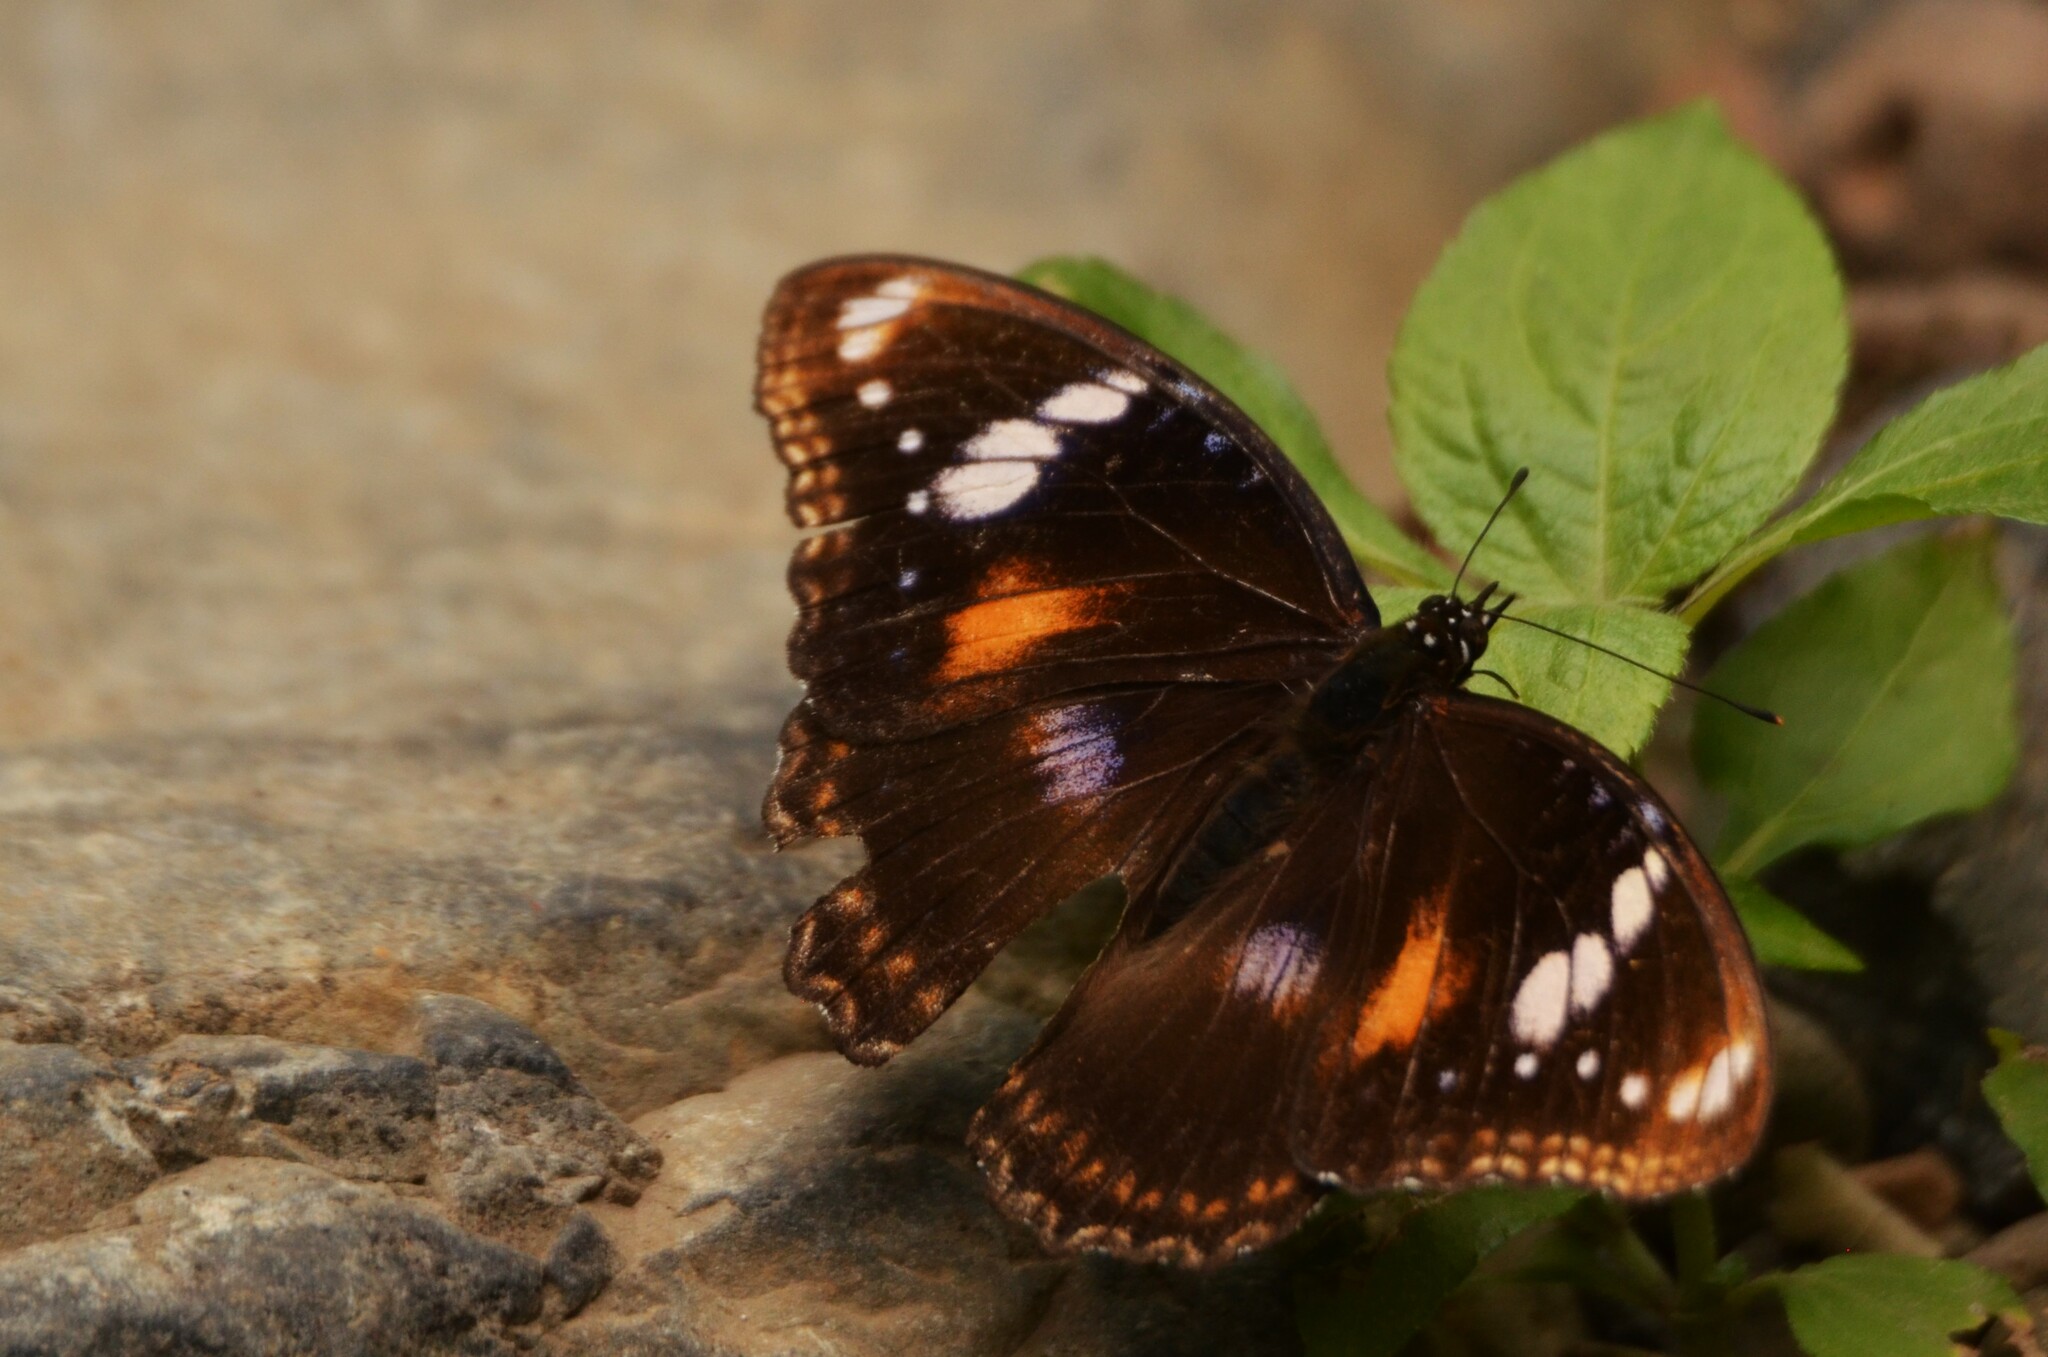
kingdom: Animalia
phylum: Arthropoda
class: Insecta
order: Lepidoptera
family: Nymphalidae
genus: Hypolimnas
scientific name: Hypolimnas bolina
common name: Great eggfly
